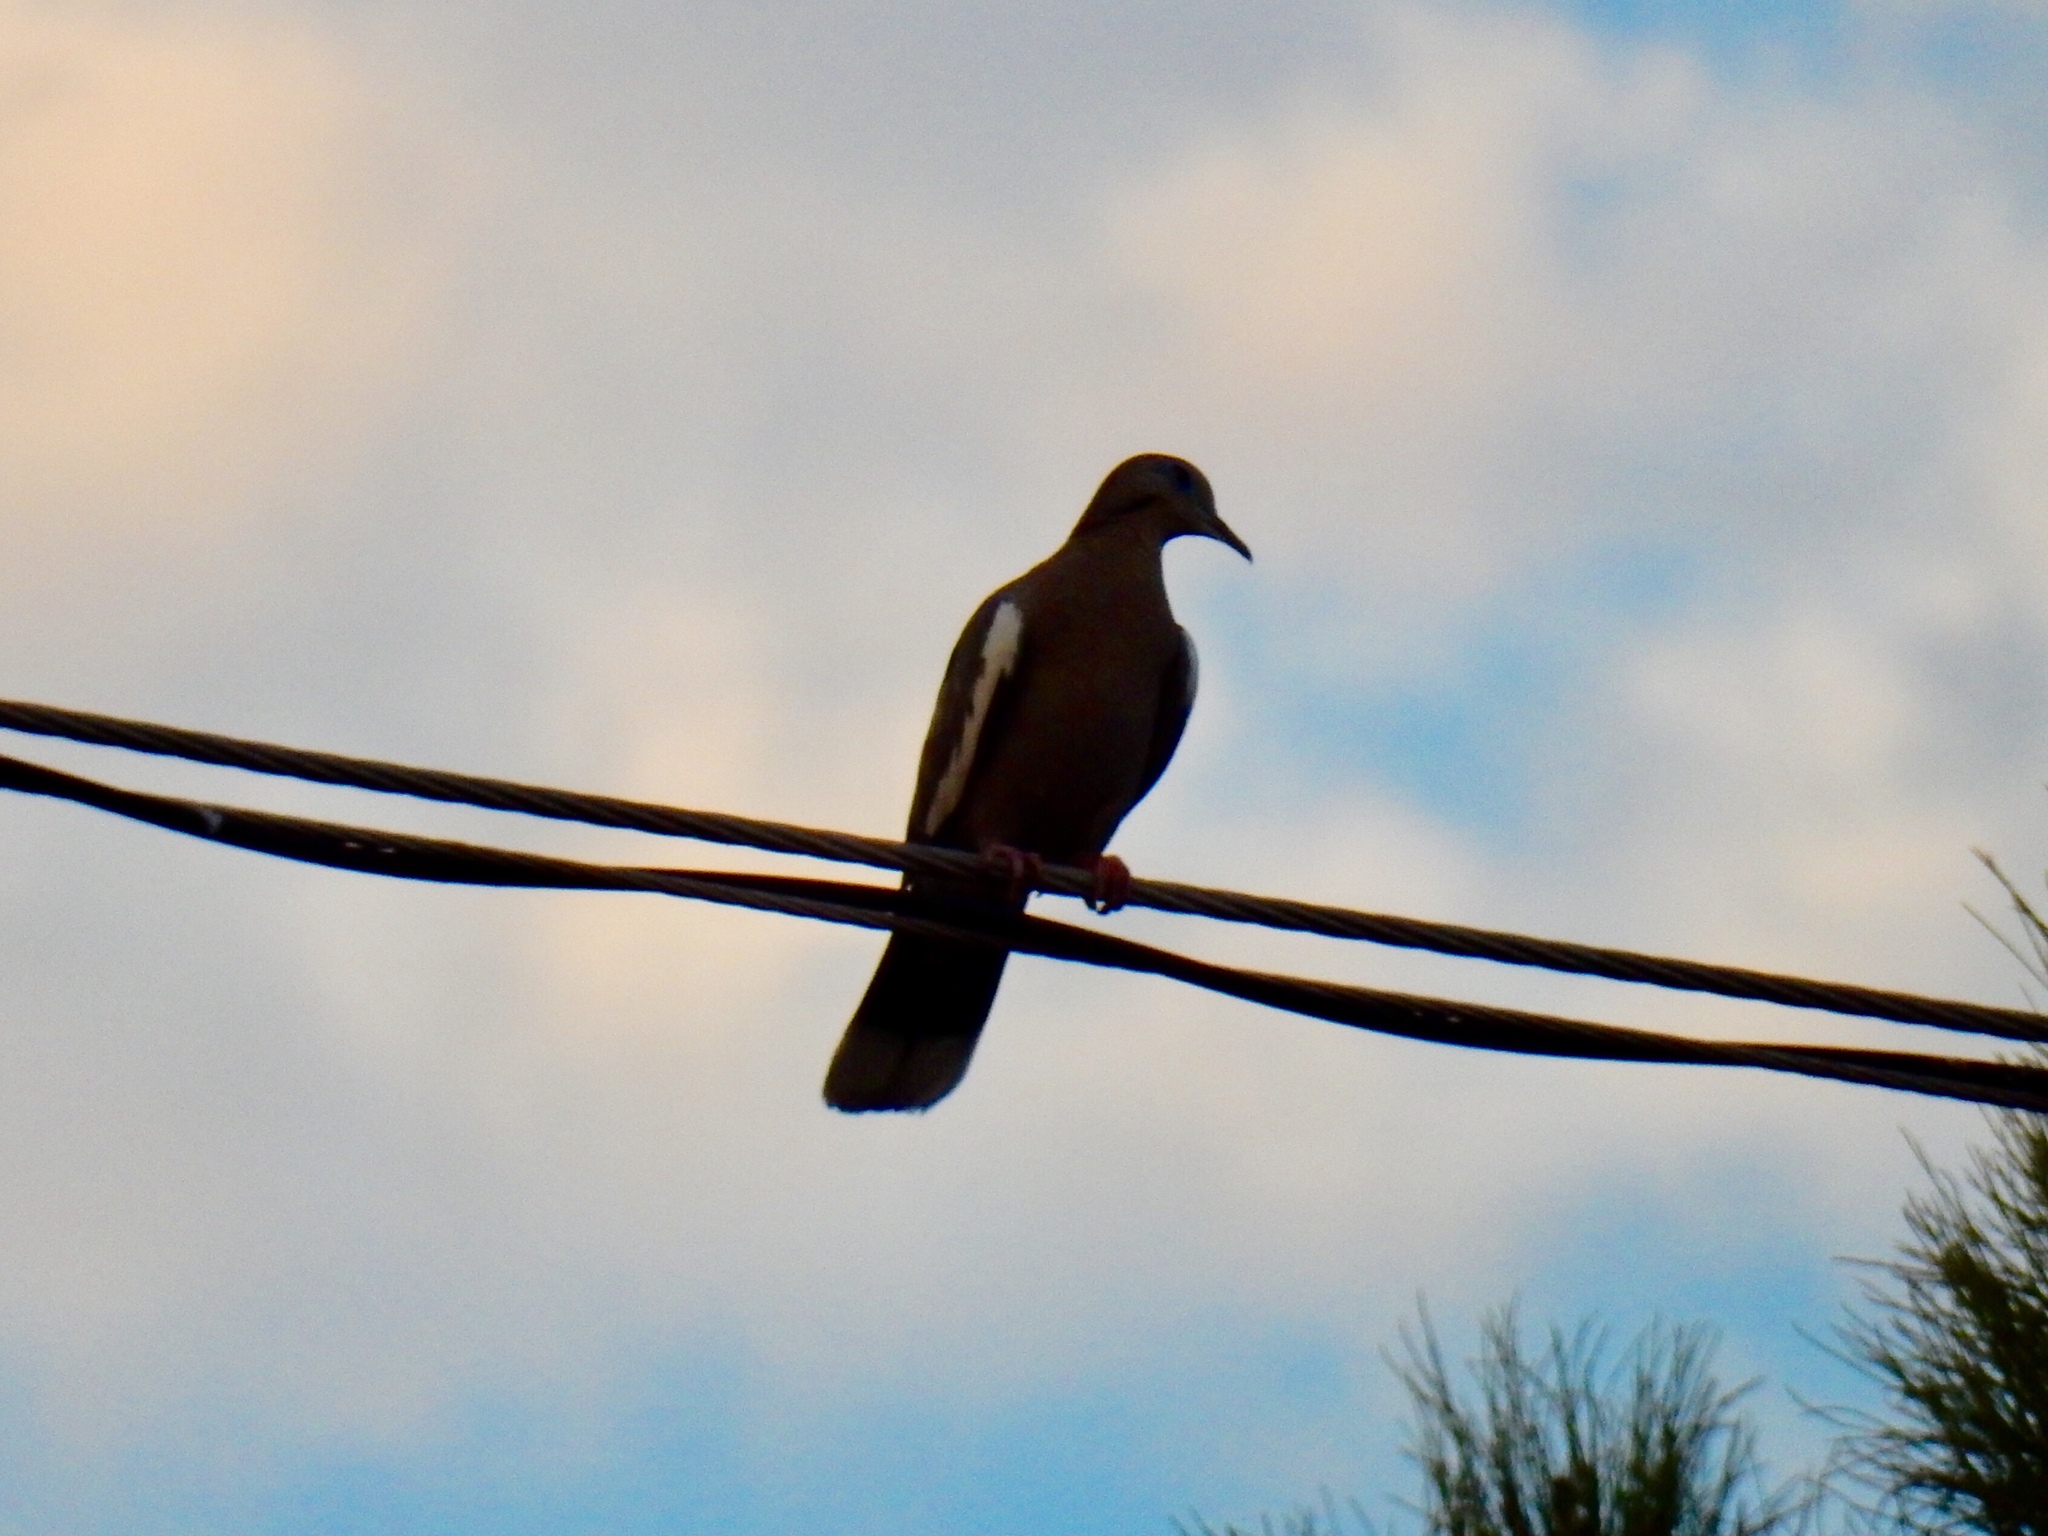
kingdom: Animalia
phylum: Chordata
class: Aves
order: Columbiformes
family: Columbidae
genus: Zenaida
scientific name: Zenaida asiatica
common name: White-winged dove
